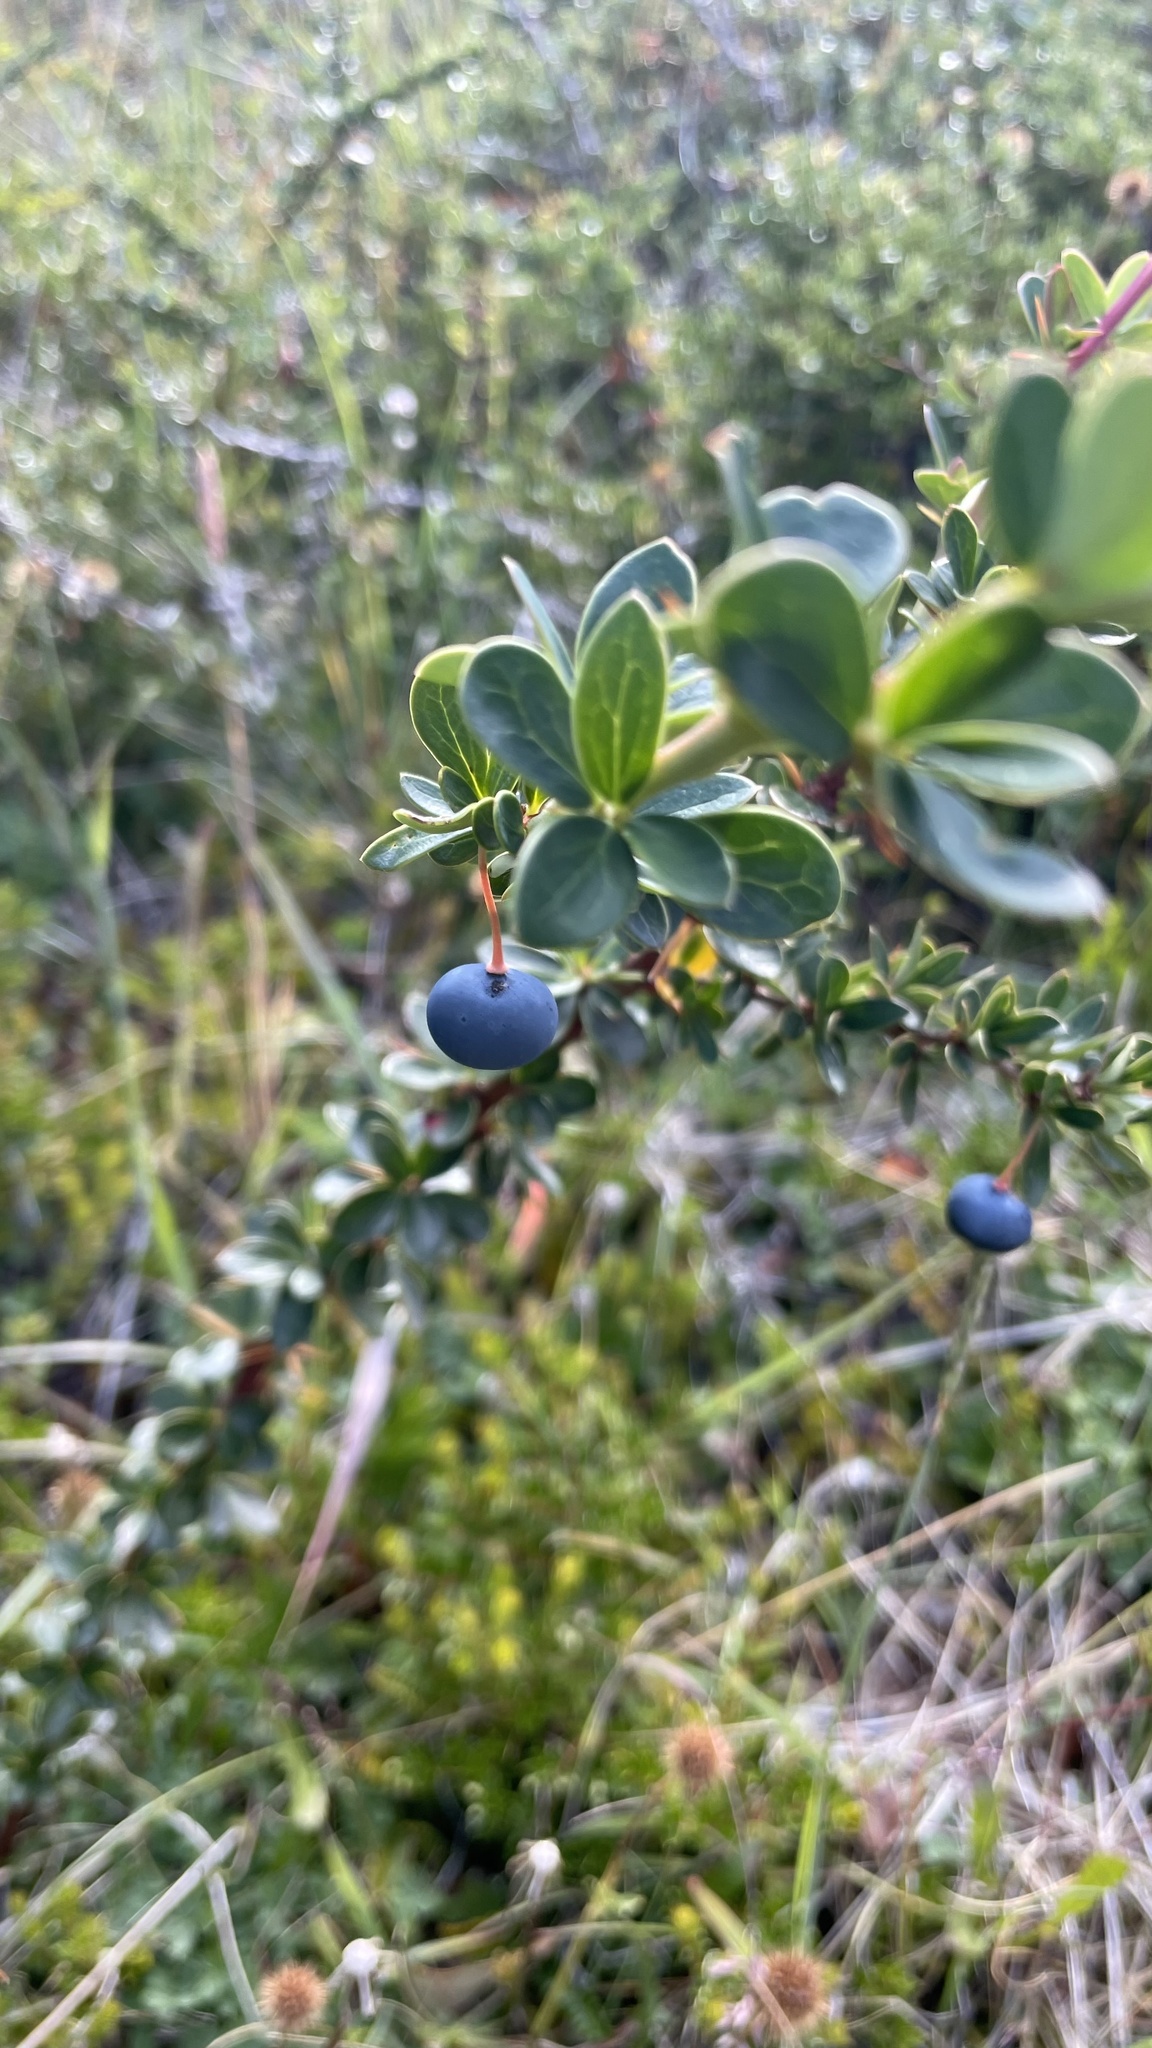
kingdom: Plantae
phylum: Tracheophyta
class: Magnoliopsida
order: Ranunculales
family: Berberidaceae
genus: Berberis
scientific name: Berberis microphylla
